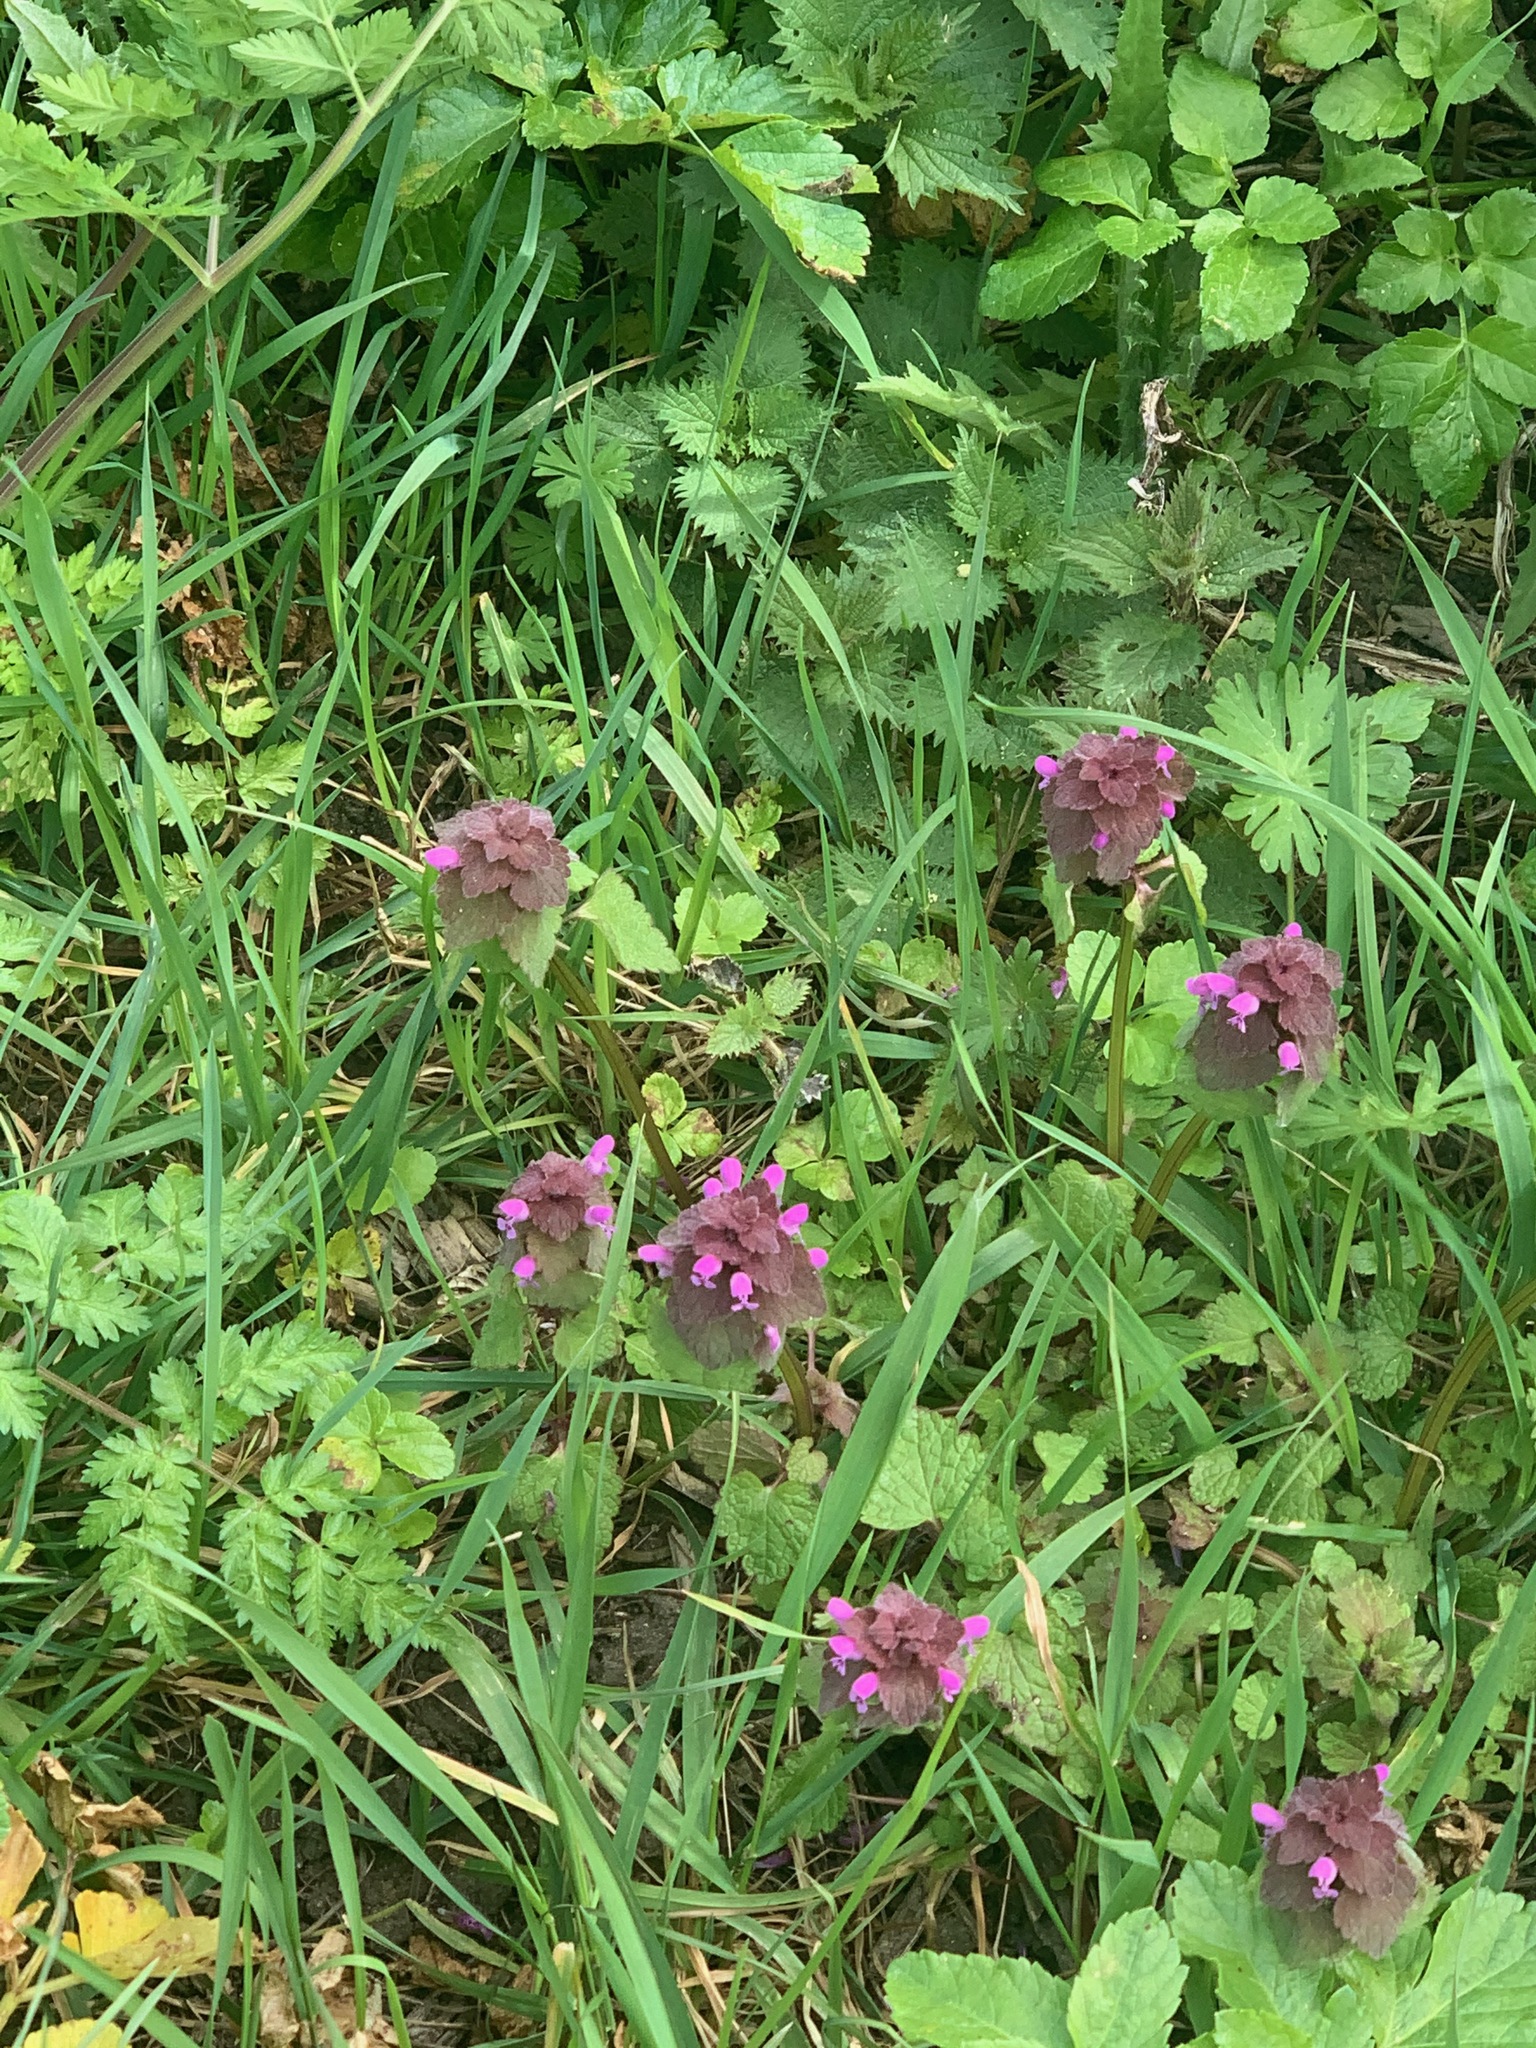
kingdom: Plantae
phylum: Tracheophyta
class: Magnoliopsida
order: Lamiales
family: Lamiaceae
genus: Lamium
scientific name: Lamium purpureum
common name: Red dead-nettle
